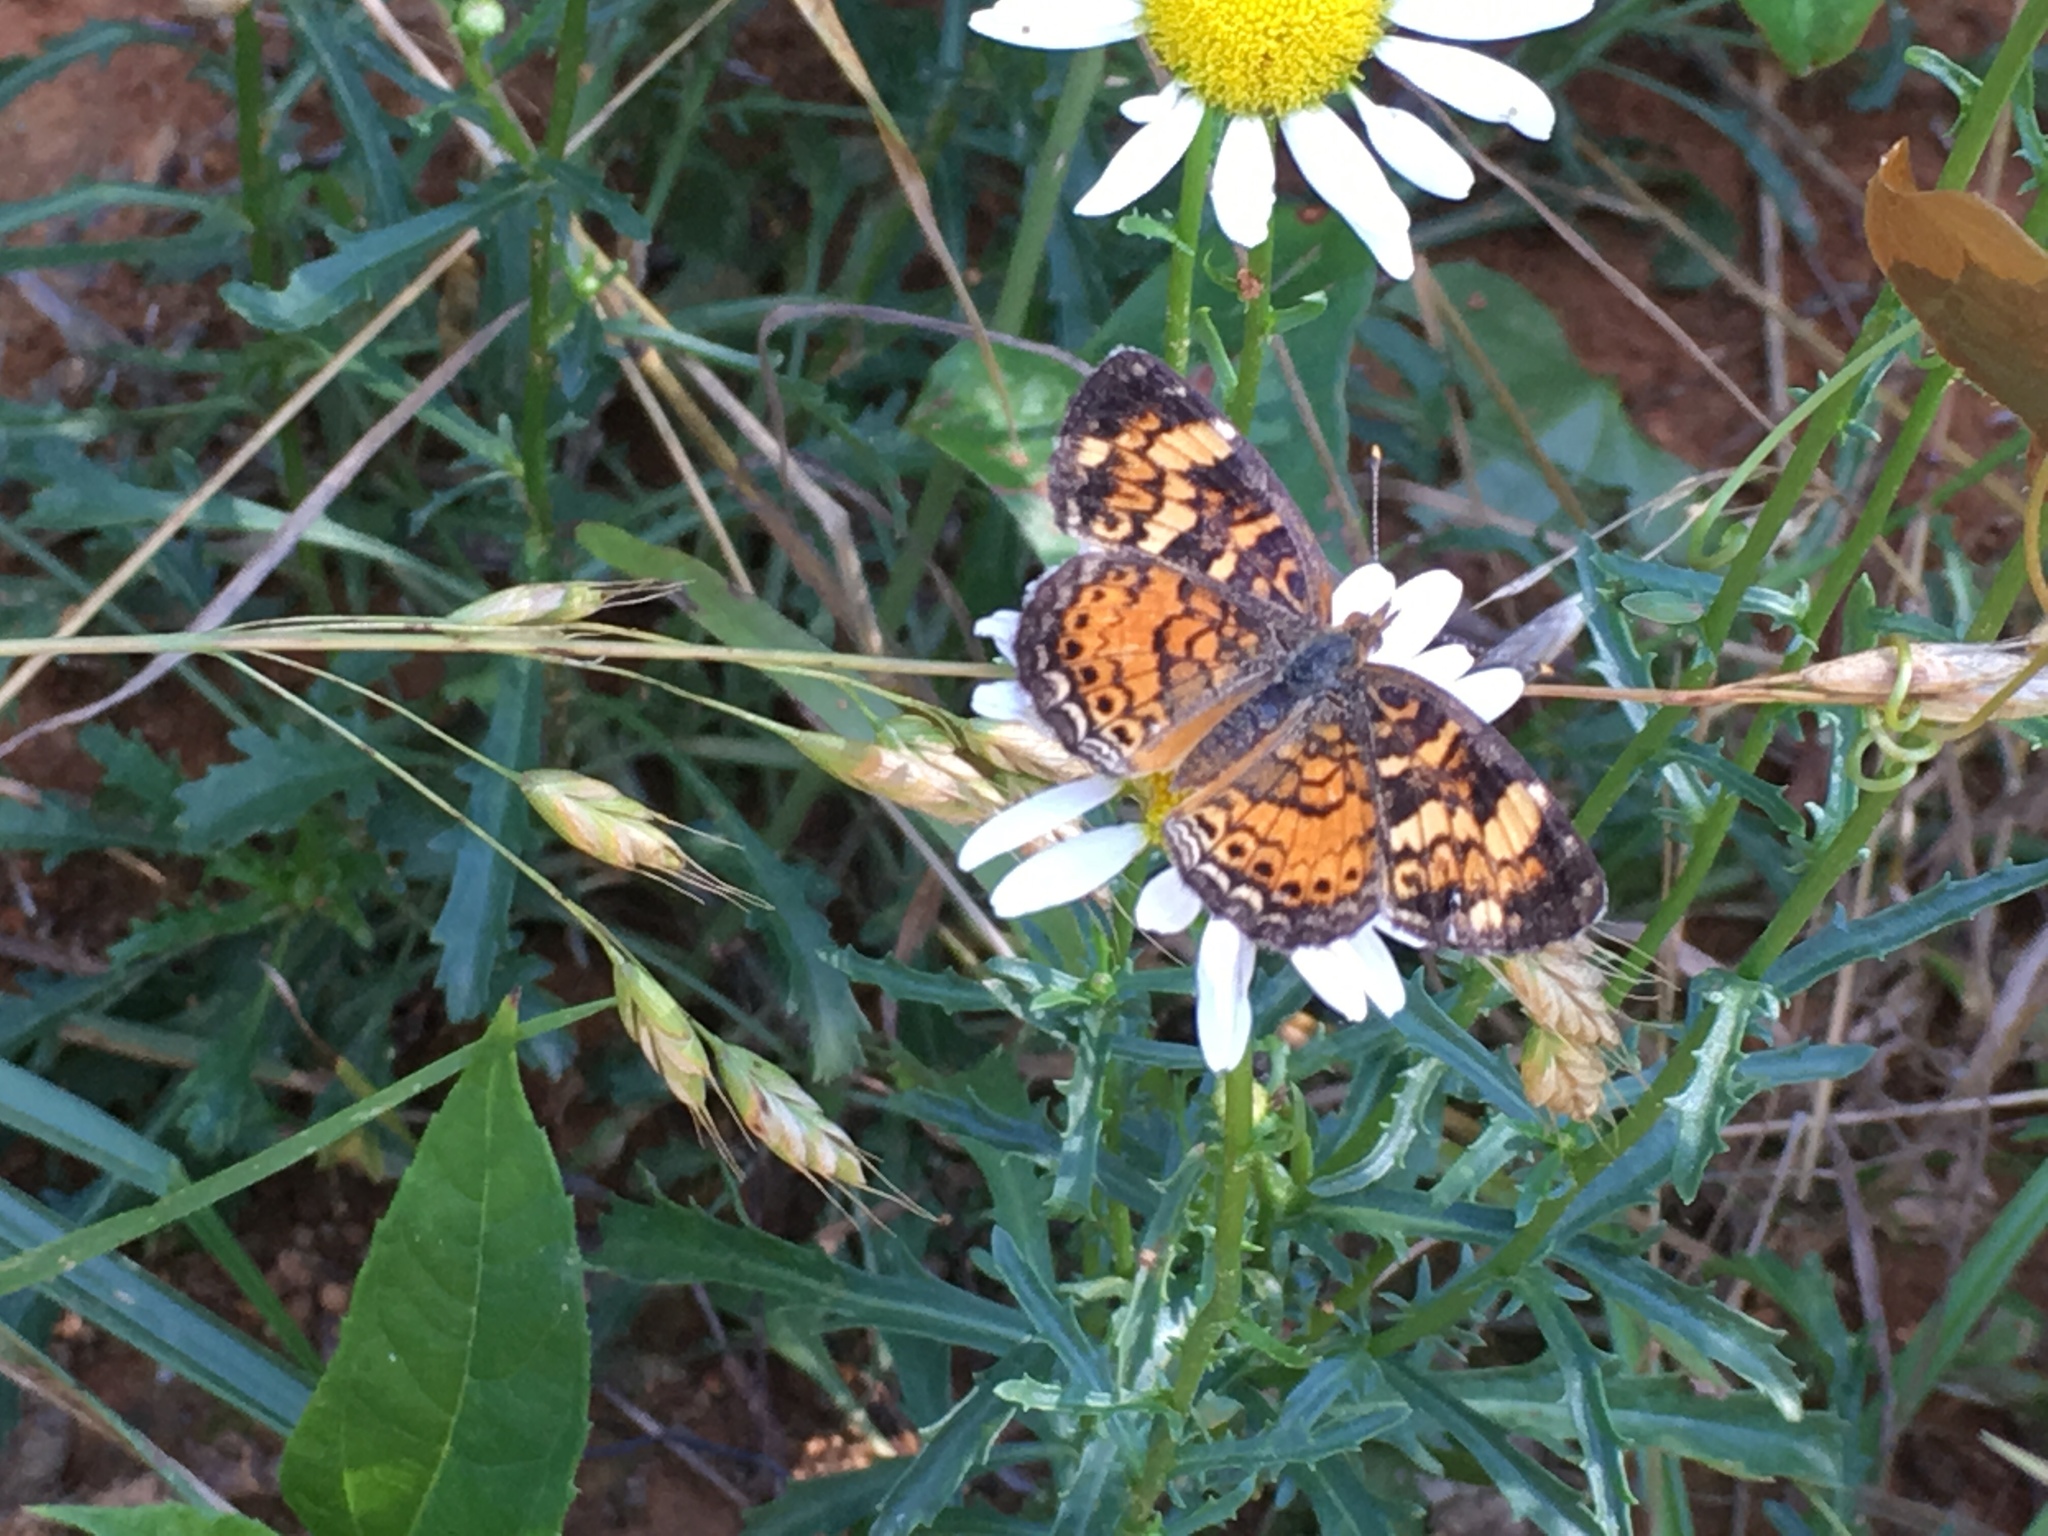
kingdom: Animalia
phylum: Arthropoda
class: Insecta
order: Lepidoptera
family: Nymphalidae
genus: Phyciodes
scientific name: Phyciodes tharos
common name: Pearl crescent
